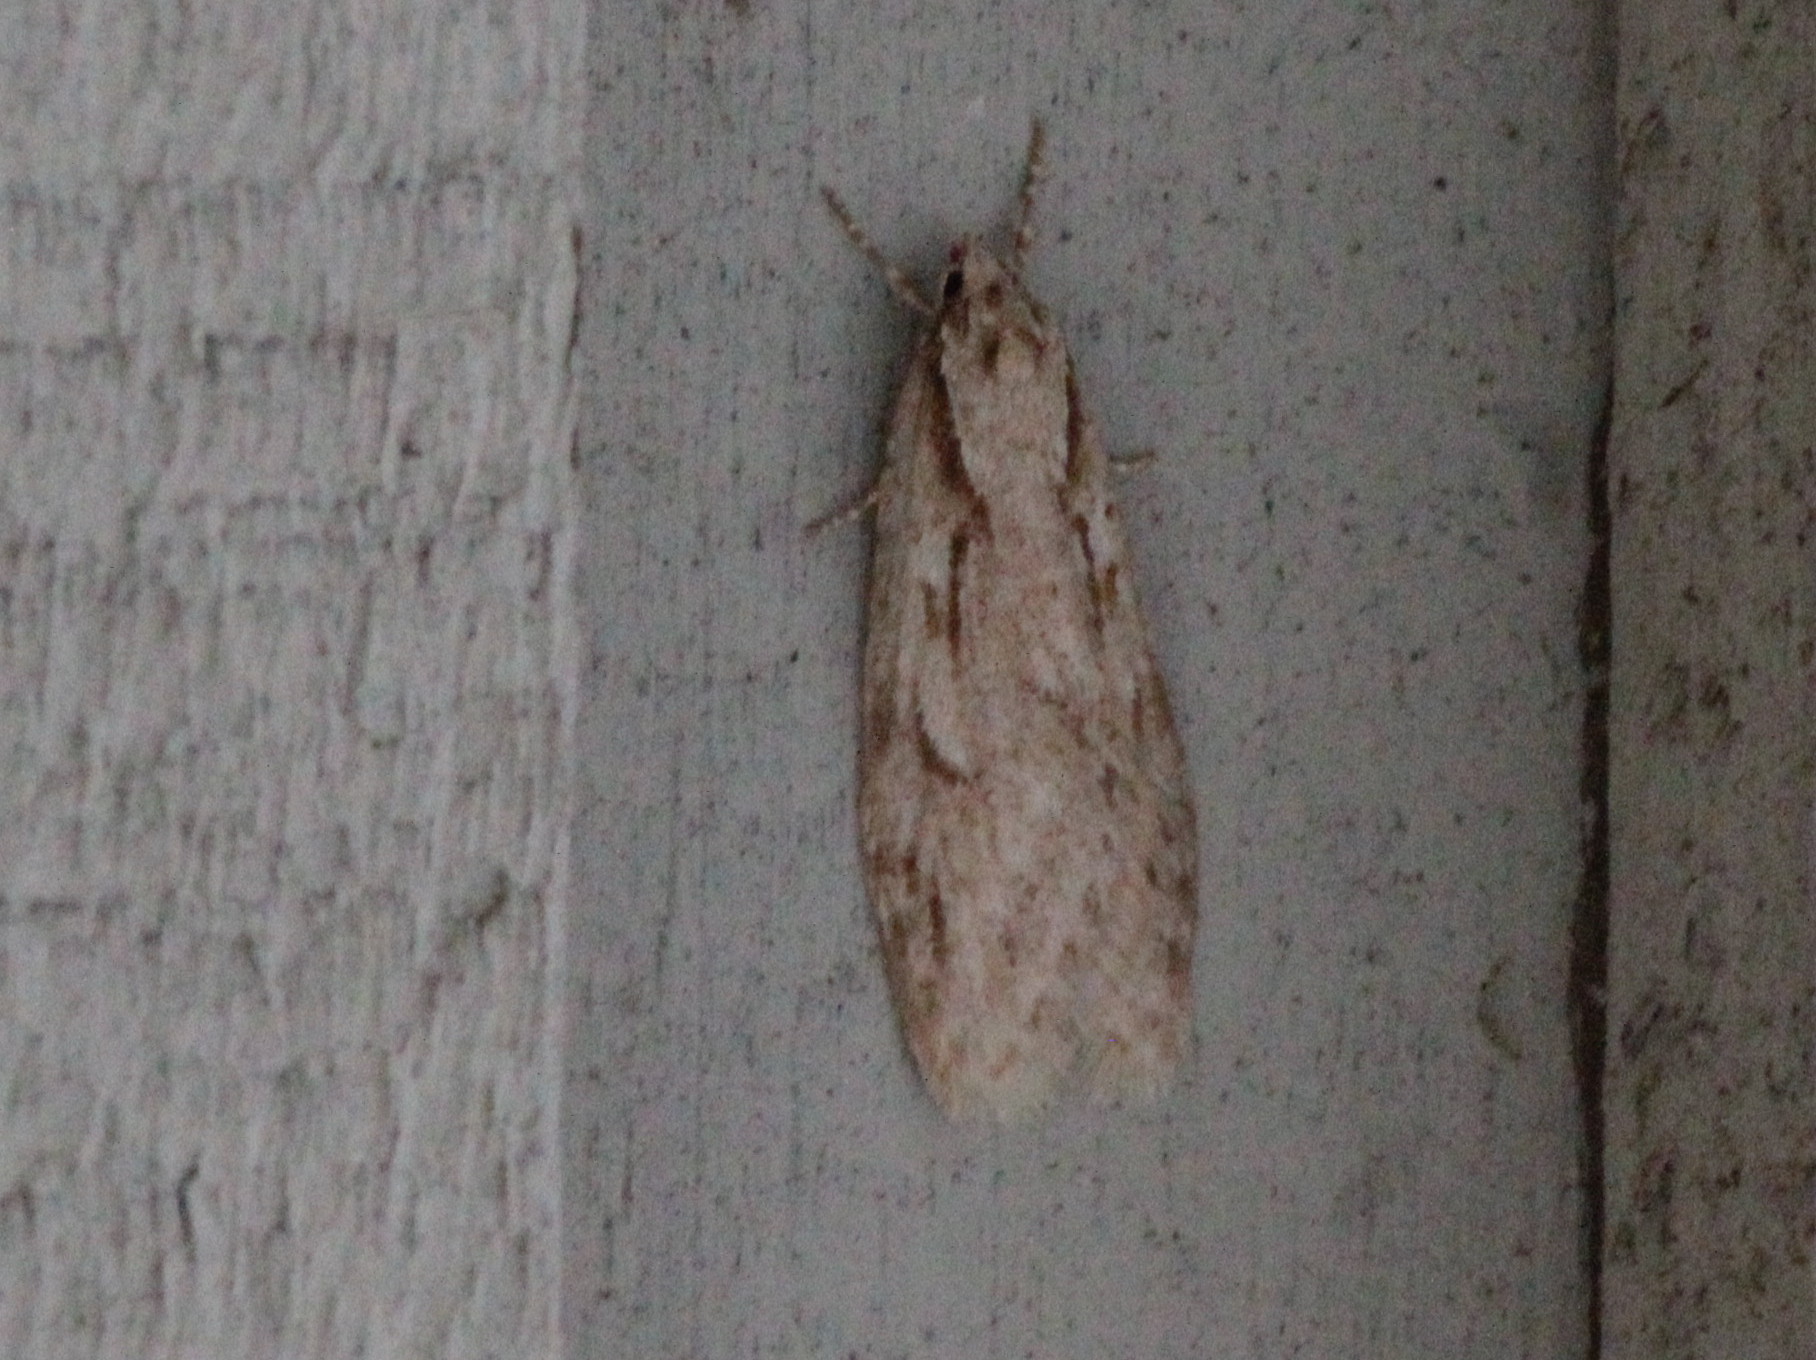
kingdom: Animalia
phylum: Arthropoda
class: Insecta
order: Lepidoptera
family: Depressariidae
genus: Semioscopis
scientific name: Semioscopis aurorella
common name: Aurora flatbody moth
